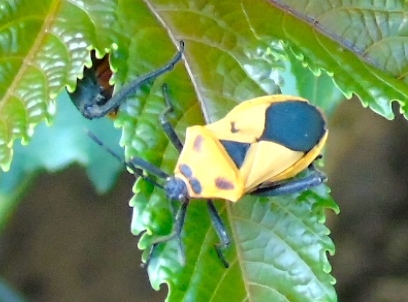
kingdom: Animalia
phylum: Arthropoda
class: Insecta
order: Hemiptera
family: Coreidae
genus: Sagotylus
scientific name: Sagotylus confluens
